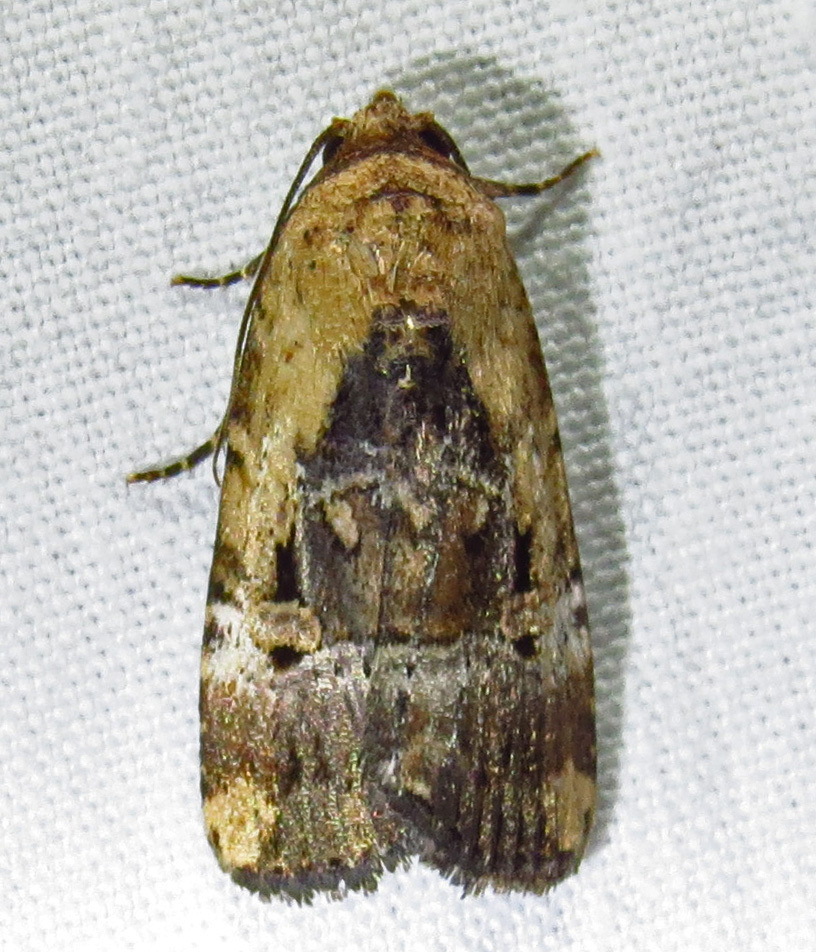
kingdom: Animalia
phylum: Arthropoda
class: Insecta
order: Lepidoptera
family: Noctuidae
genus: Elaphria
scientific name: Elaphria chalcedonia
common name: Chalcedony midget
